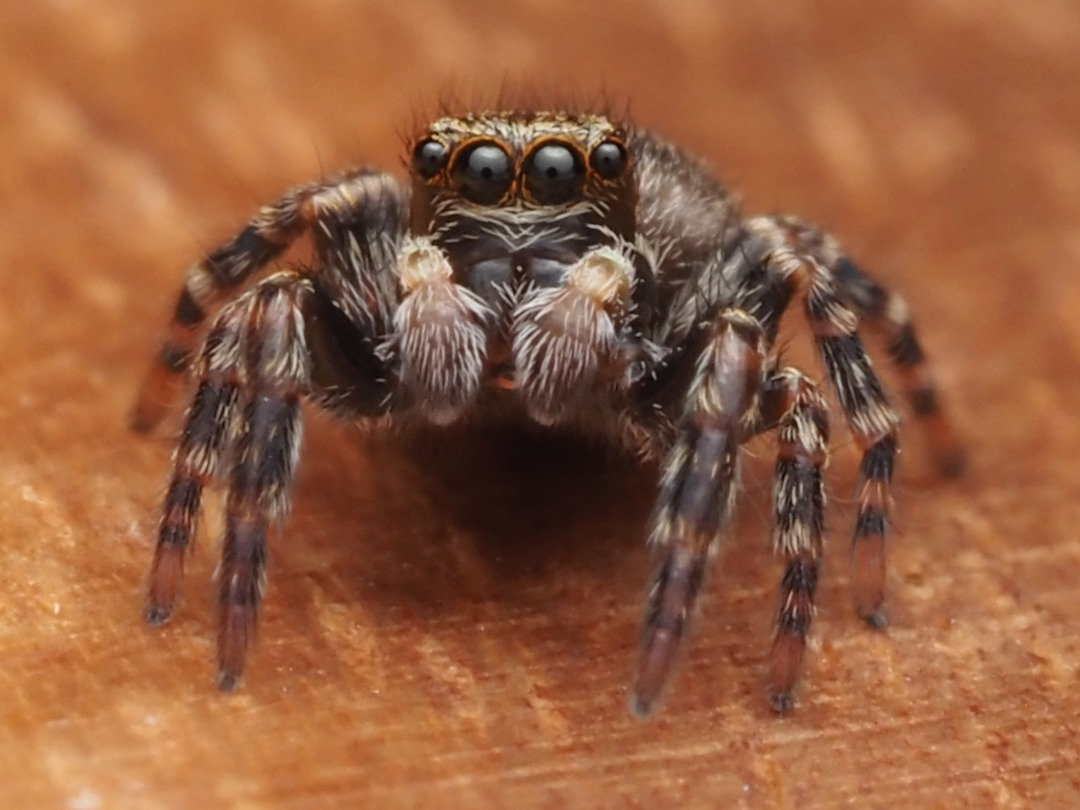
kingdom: Animalia
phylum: Arthropoda
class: Arachnida
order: Araneae
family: Salticidae
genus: Pseudeuophrys
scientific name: Pseudeuophrys erratica
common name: Jumping spider
